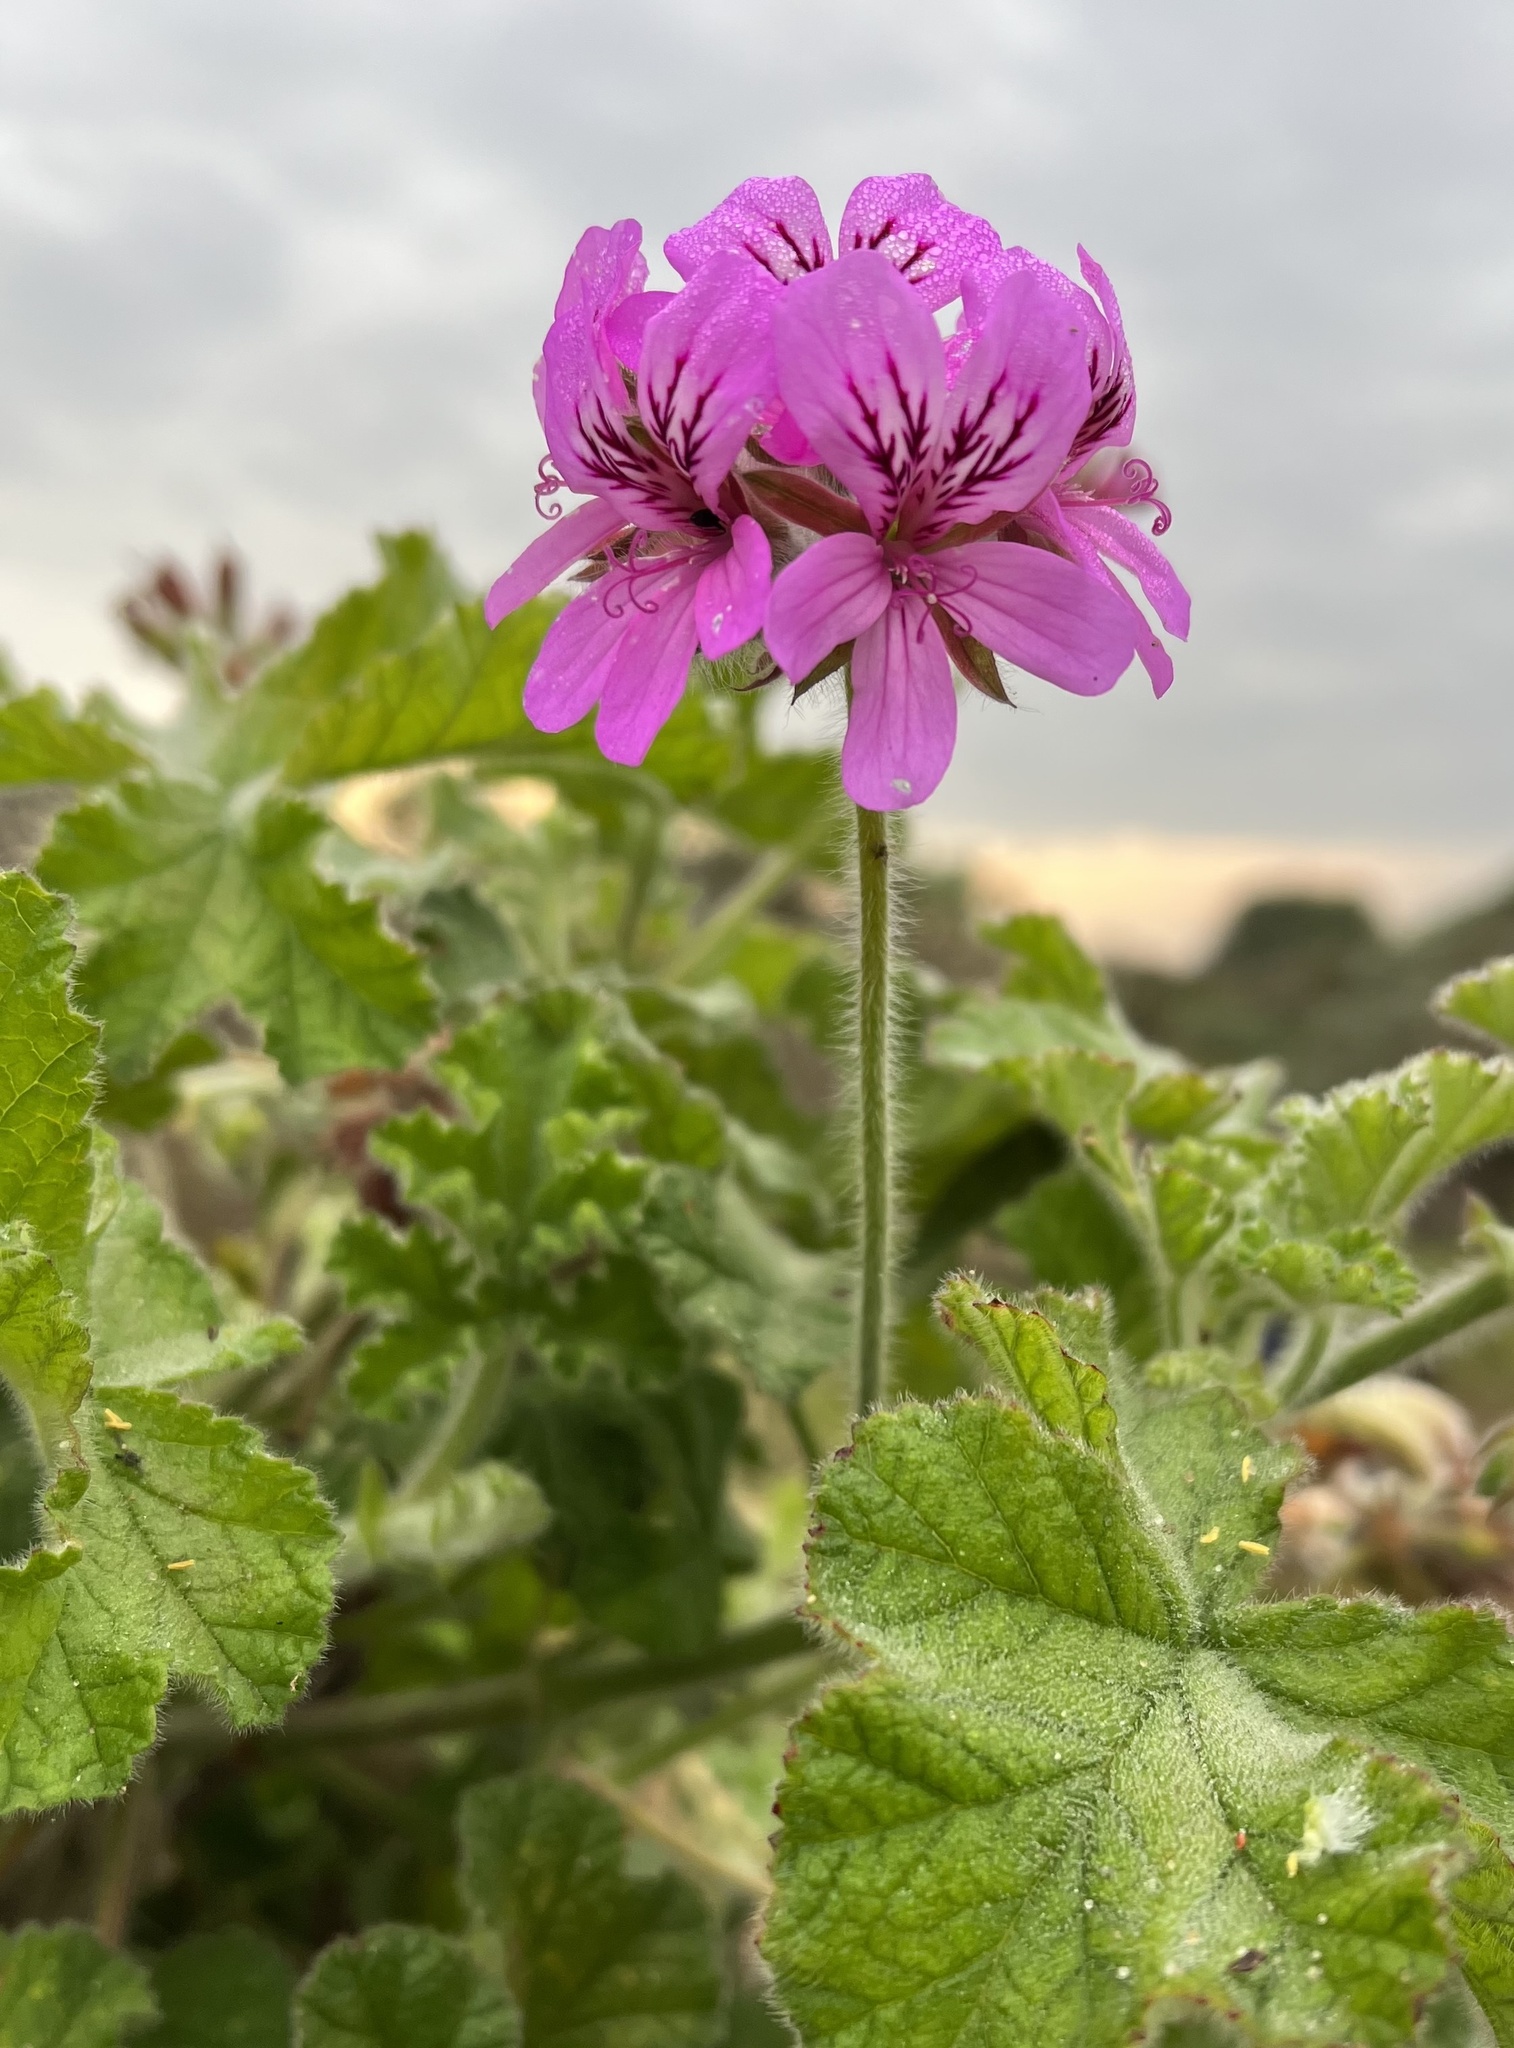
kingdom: Plantae
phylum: Tracheophyta
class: Magnoliopsida
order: Geraniales
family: Geraniaceae
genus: Pelargonium
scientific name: Pelargonium capitatum
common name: Rose scented geranium
